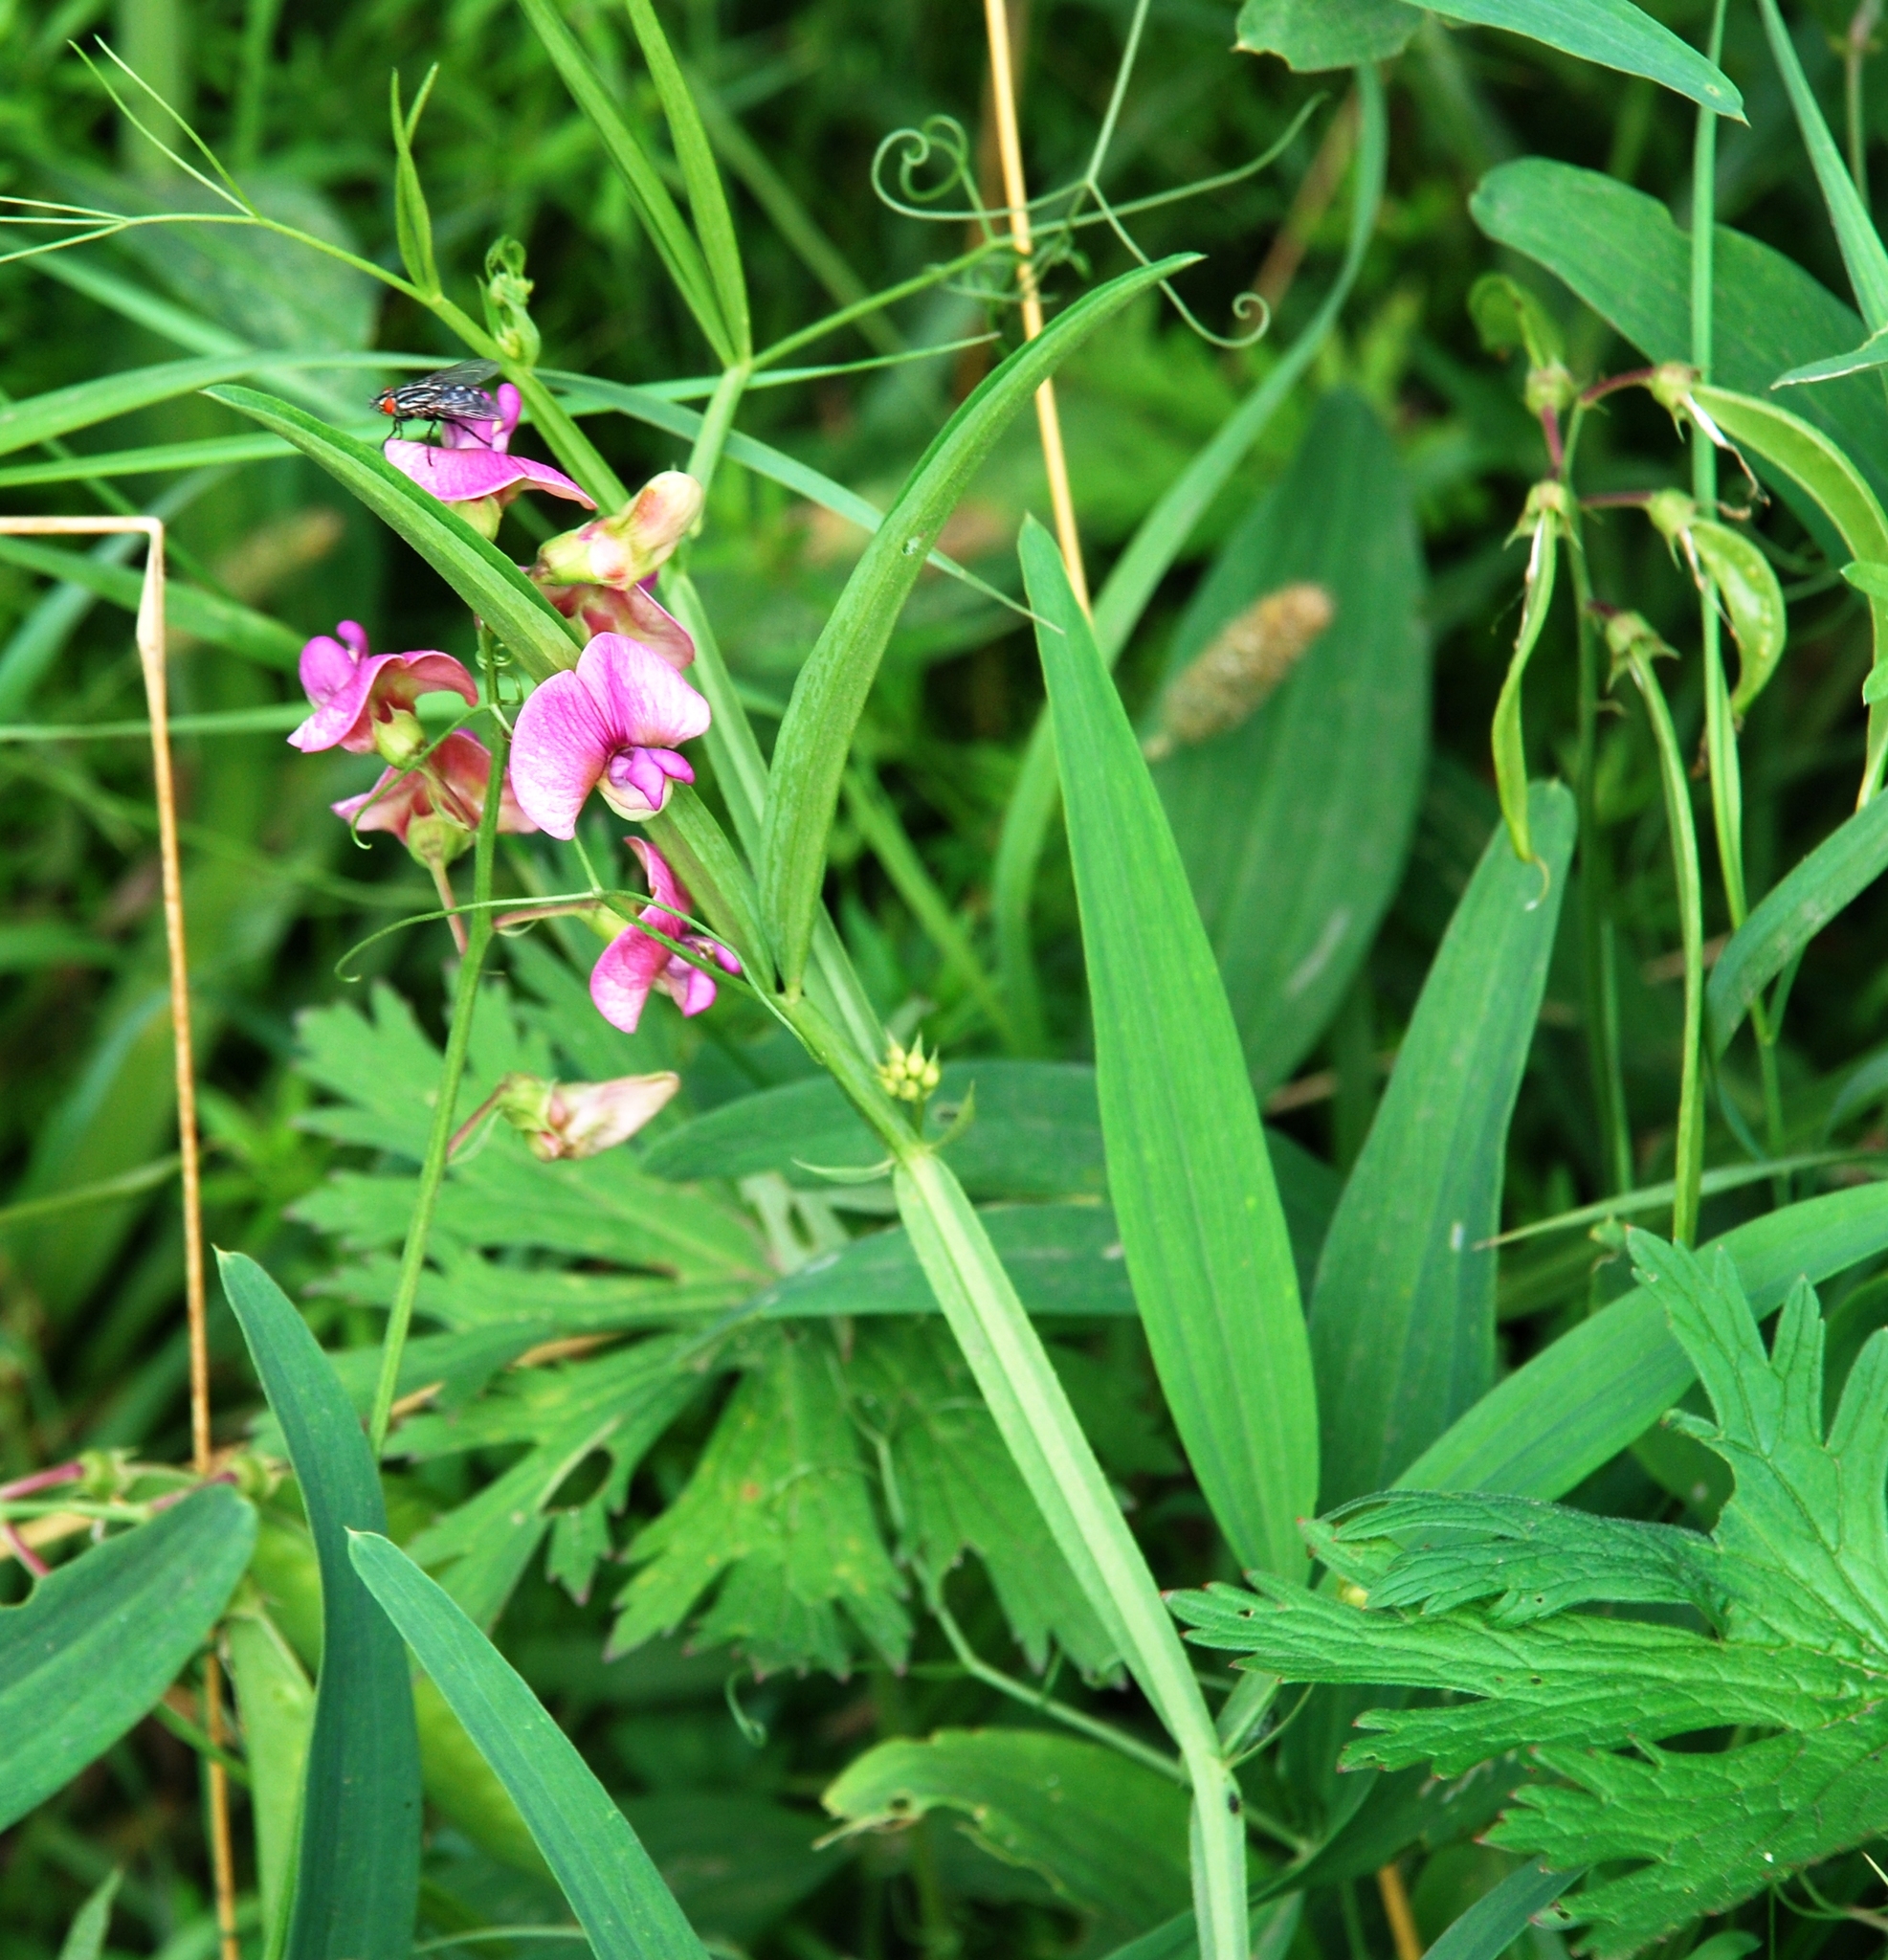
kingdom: Plantae
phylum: Tracheophyta
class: Magnoliopsida
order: Fabales
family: Fabaceae
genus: Lathyrus
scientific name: Lathyrus sylvestris
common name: Flat pea
